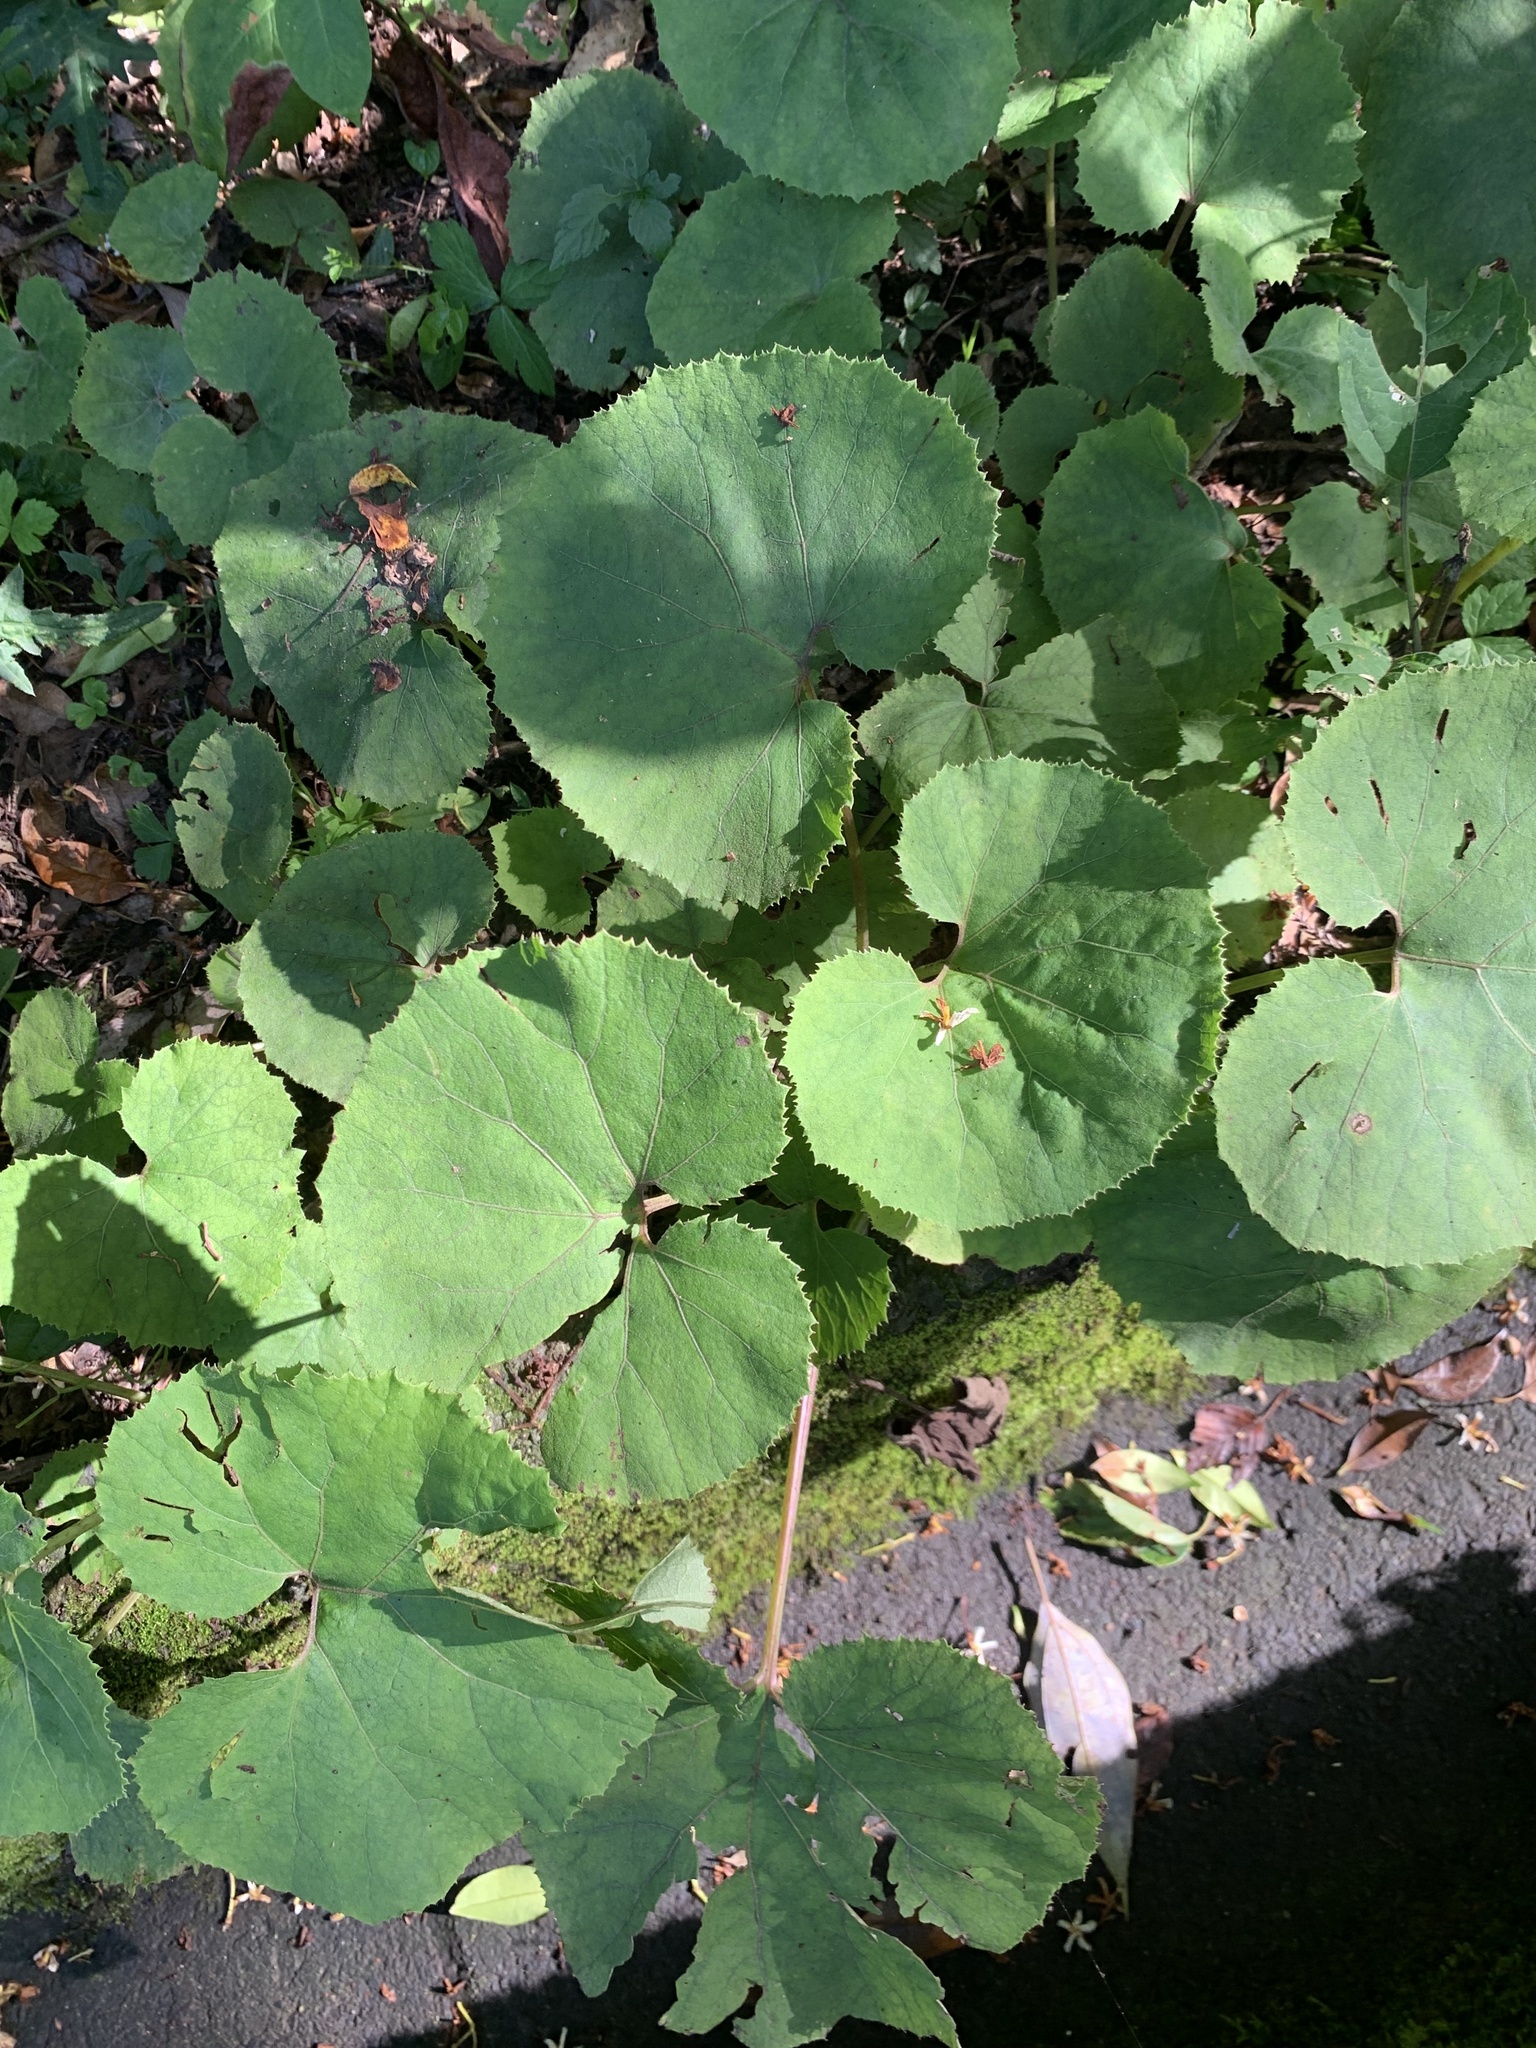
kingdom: Plantae
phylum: Tracheophyta
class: Magnoliopsida
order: Asterales
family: Asteraceae
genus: Petasites
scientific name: Petasites japonicus
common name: Giant butterbur
